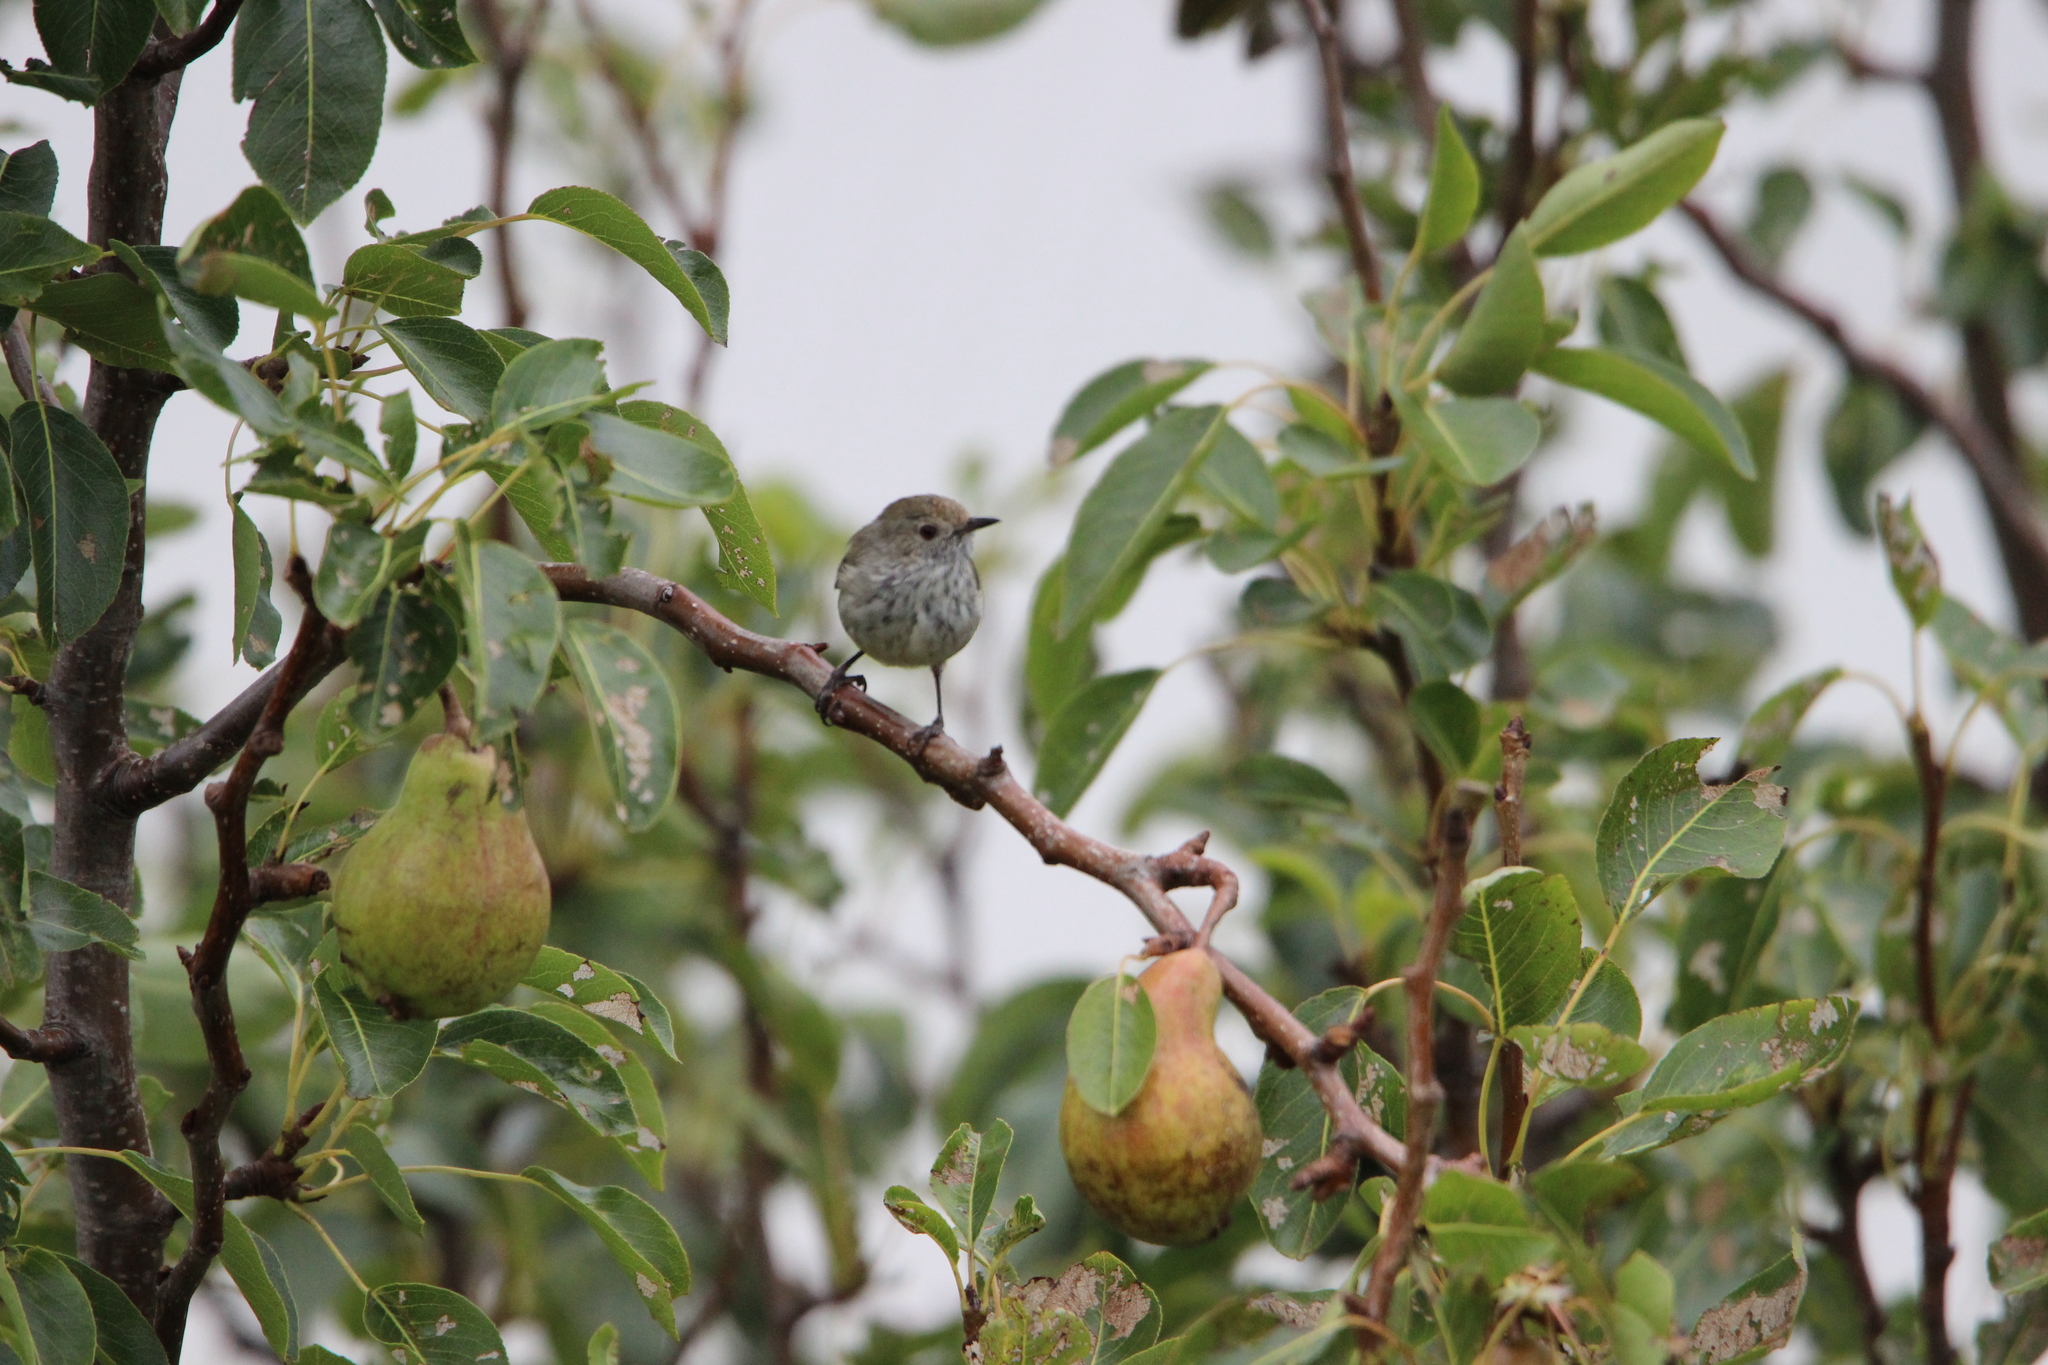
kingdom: Animalia
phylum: Chordata
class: Aves
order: Passeriformes
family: Acanthizidae
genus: Acanthiza
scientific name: Acanthiza pusilla
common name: Brown thornbill
